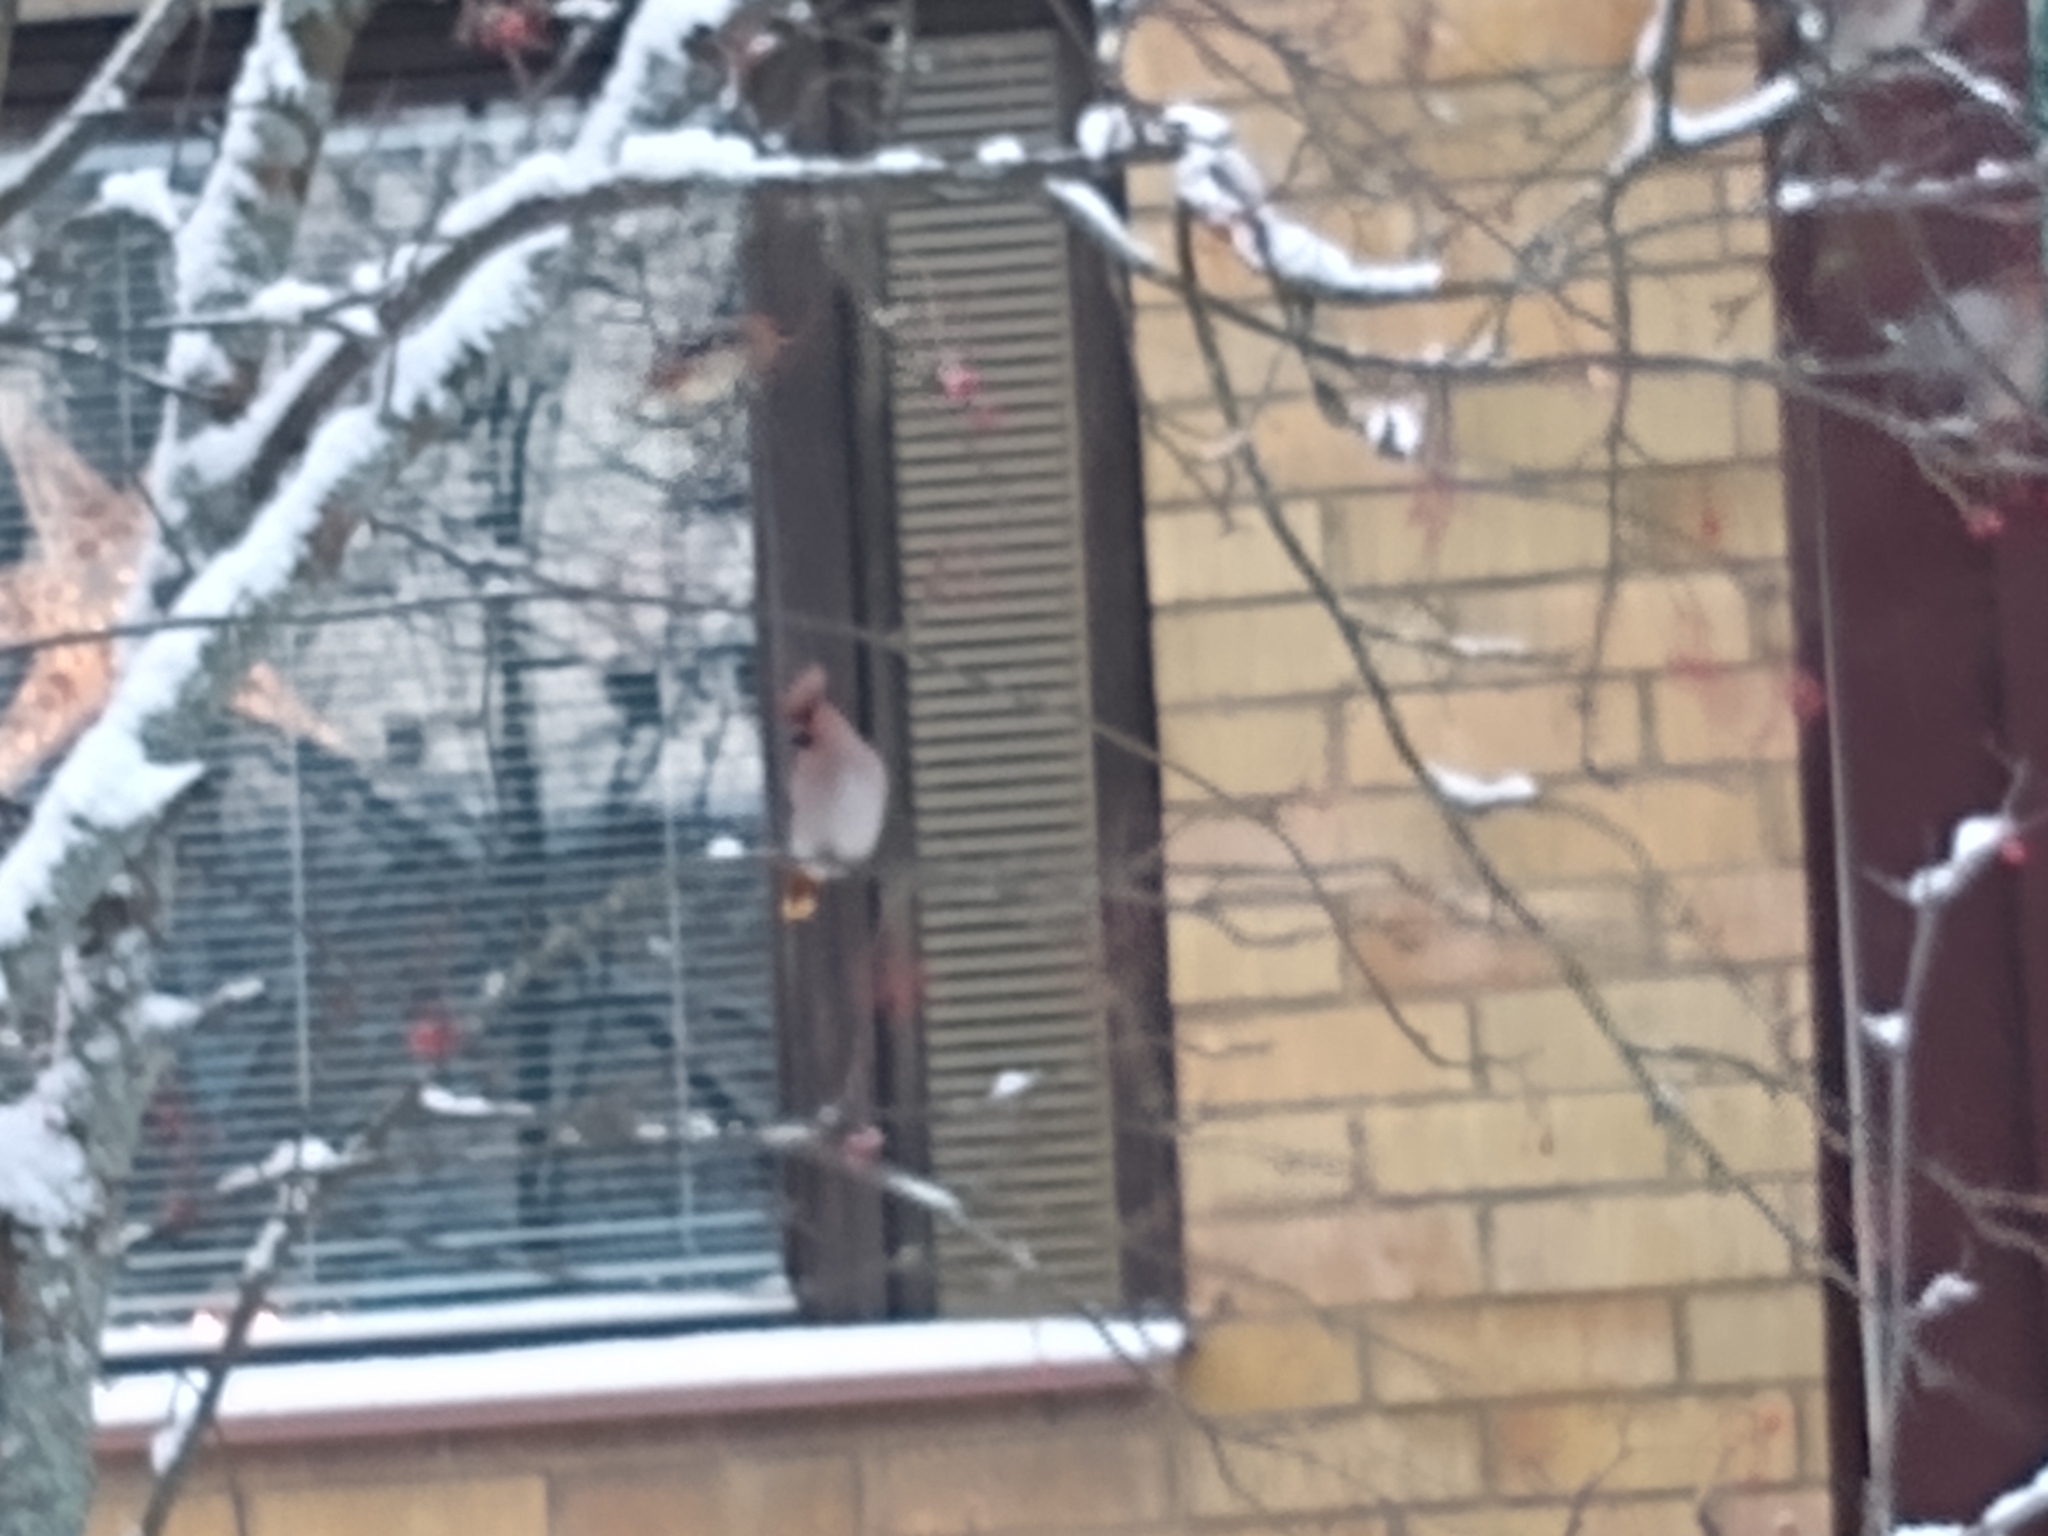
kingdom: Animalia
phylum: Chordata
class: Aves
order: Passeriformes
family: Bombycillidae
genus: Bombycilla
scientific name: Bombycilla garrulus
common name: Bohemian waxwing
